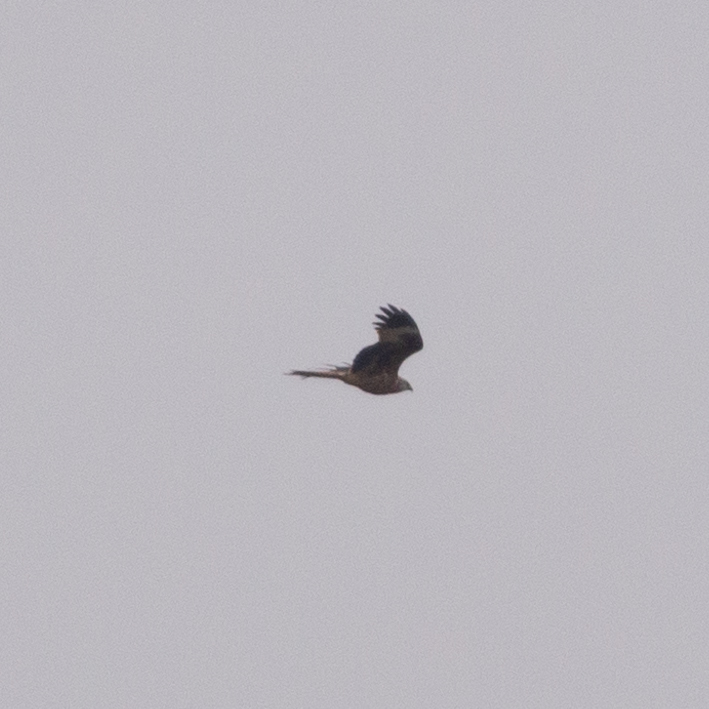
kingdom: Animalia
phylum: Chordata
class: Aves
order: Accipitriformes
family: Accipitridae
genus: Milvus
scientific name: Milvus milvus
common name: Red kite
